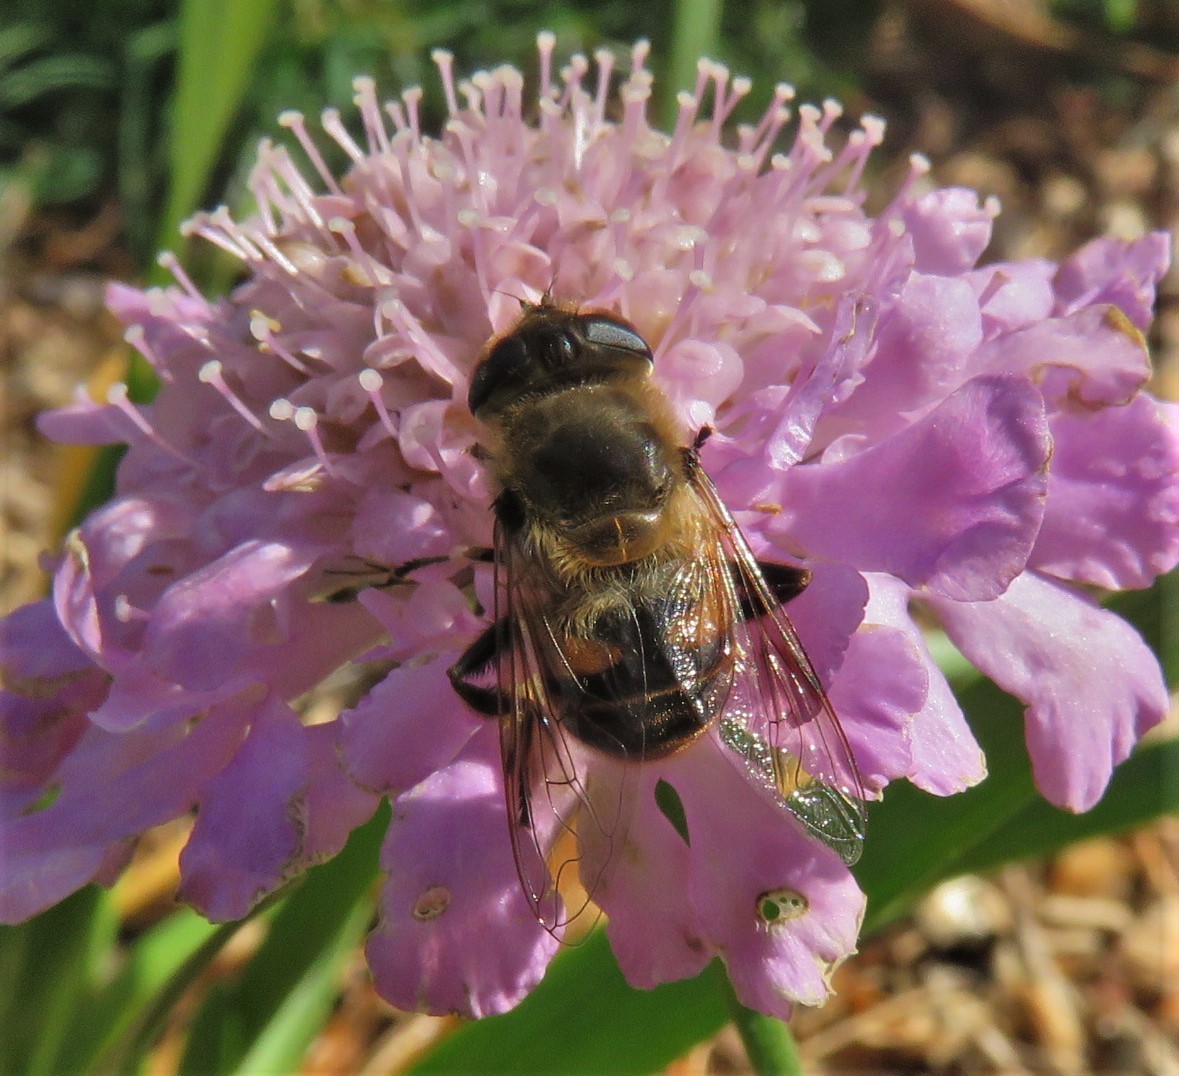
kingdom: Animalia
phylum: Arthropoda
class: Insecta
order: Diptera
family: Syrphidae
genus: Eristalis
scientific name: Eristalis tenax
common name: Drone fly
